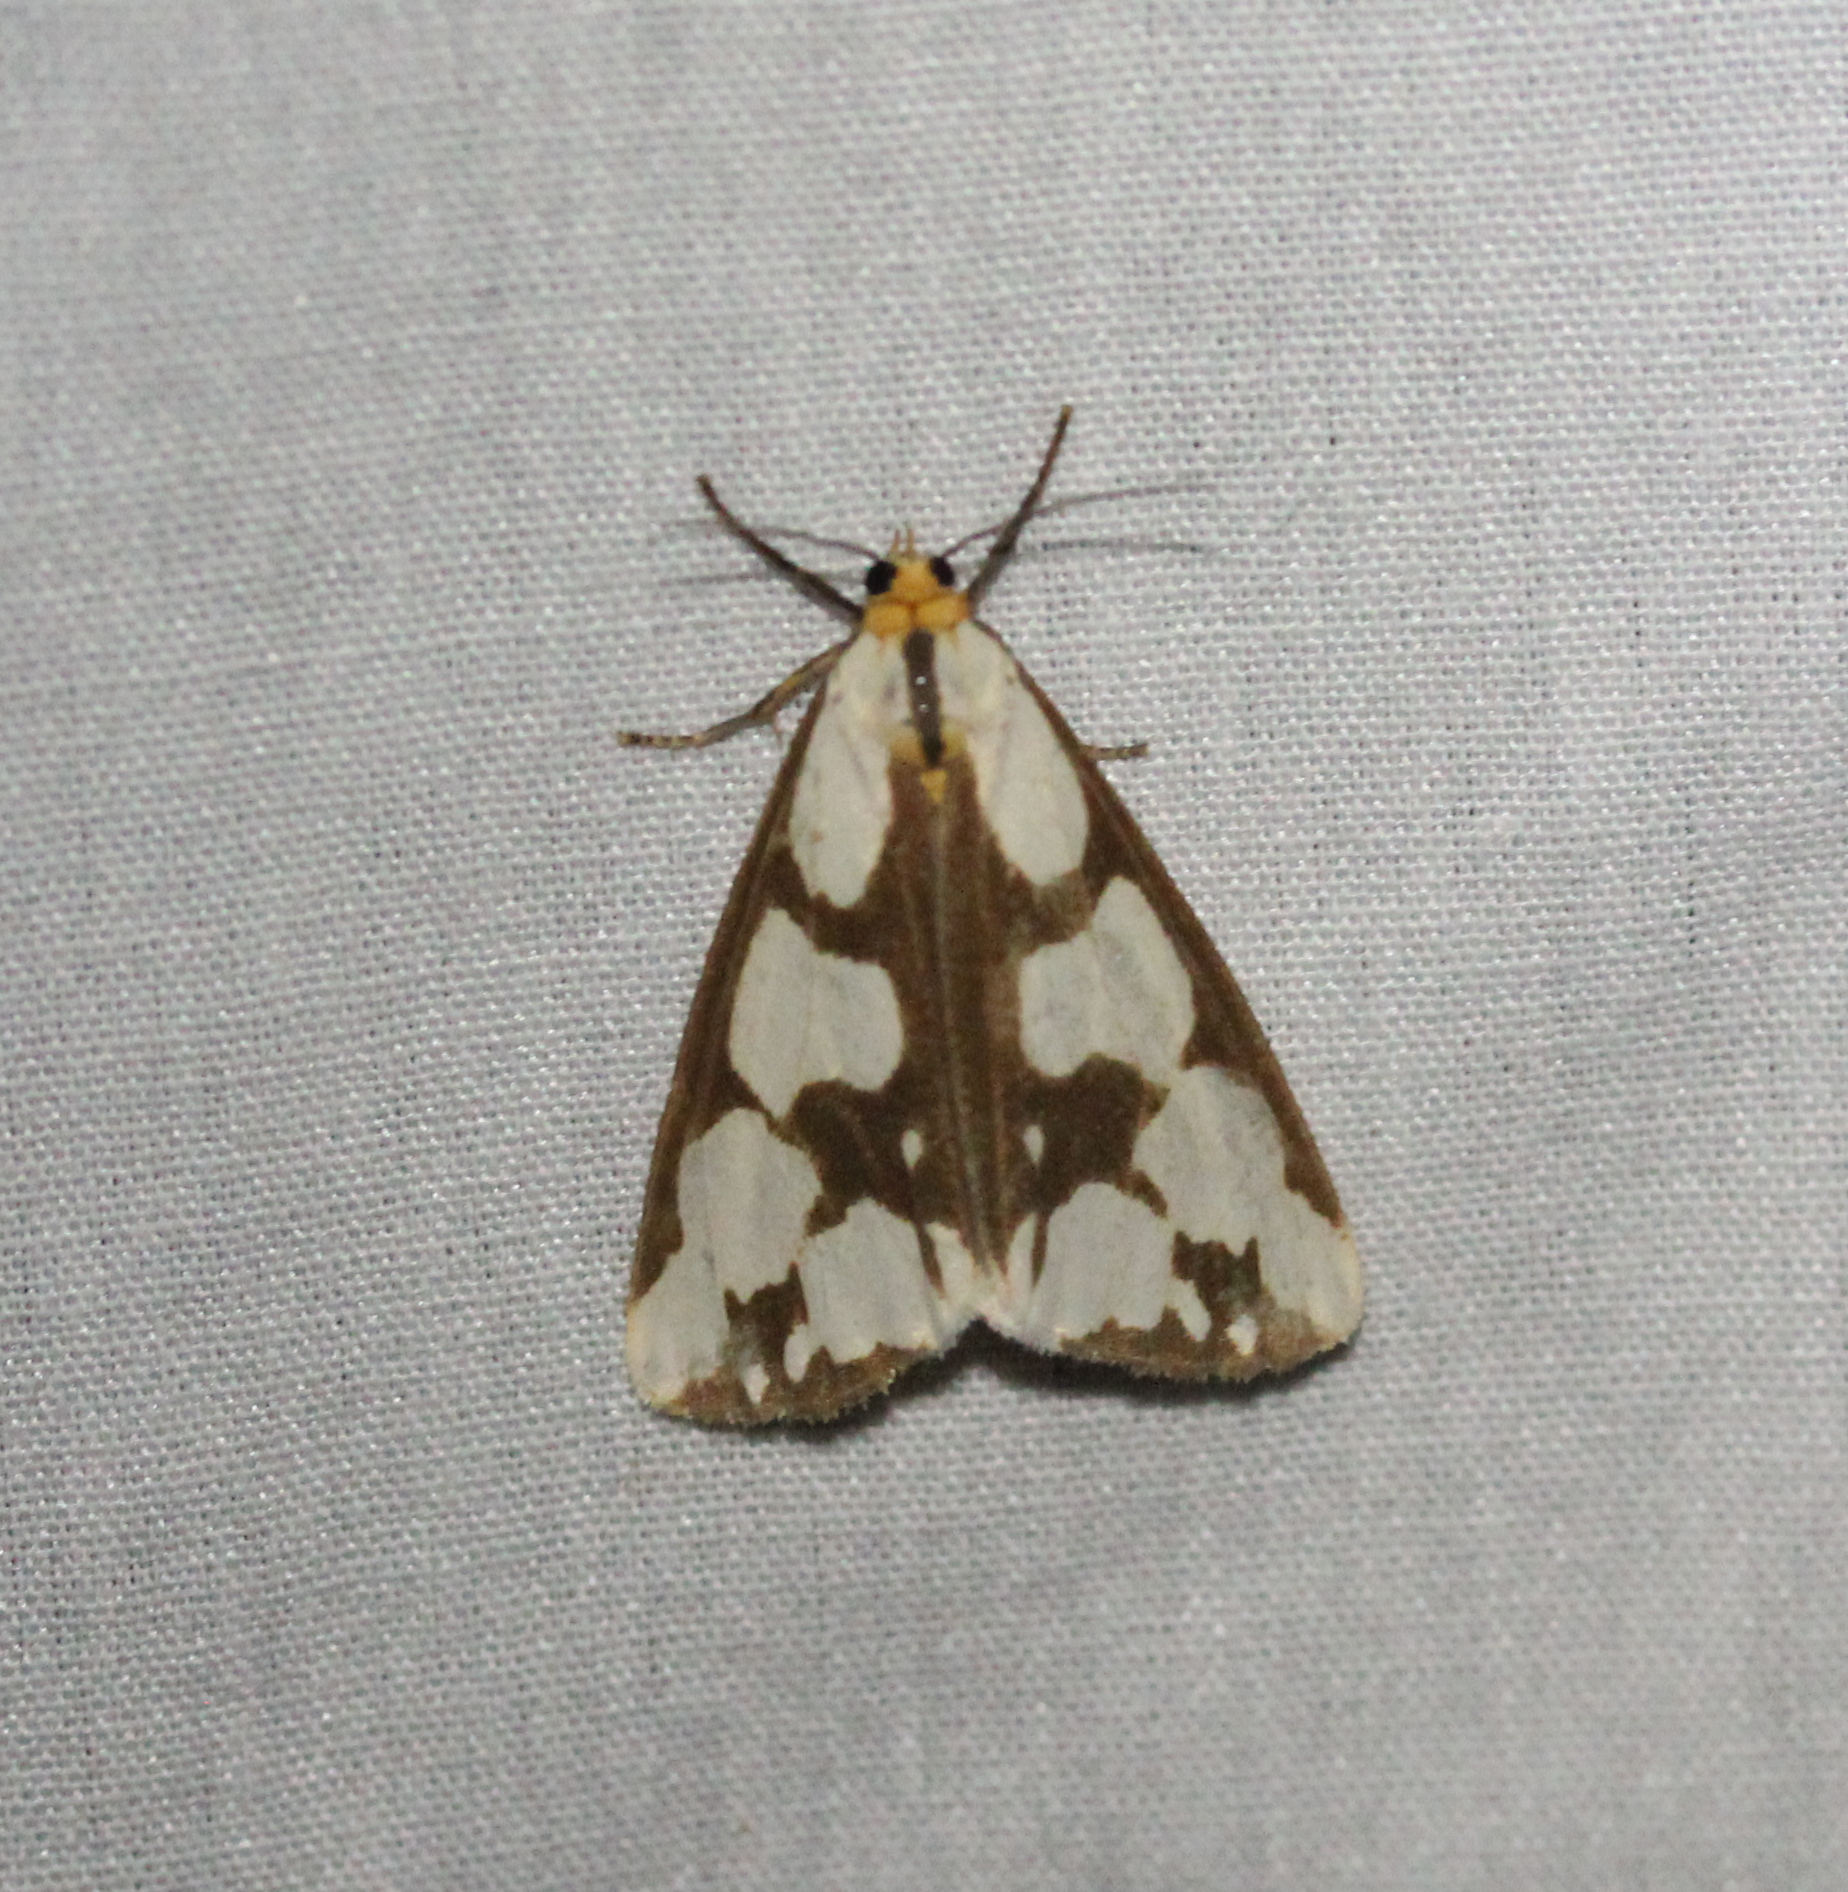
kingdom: Animalia
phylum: Arthropoda
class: Insecta
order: Lepidoptera
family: Erebidae
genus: Haploa
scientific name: Haploa confusa
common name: Confused haploa moth
